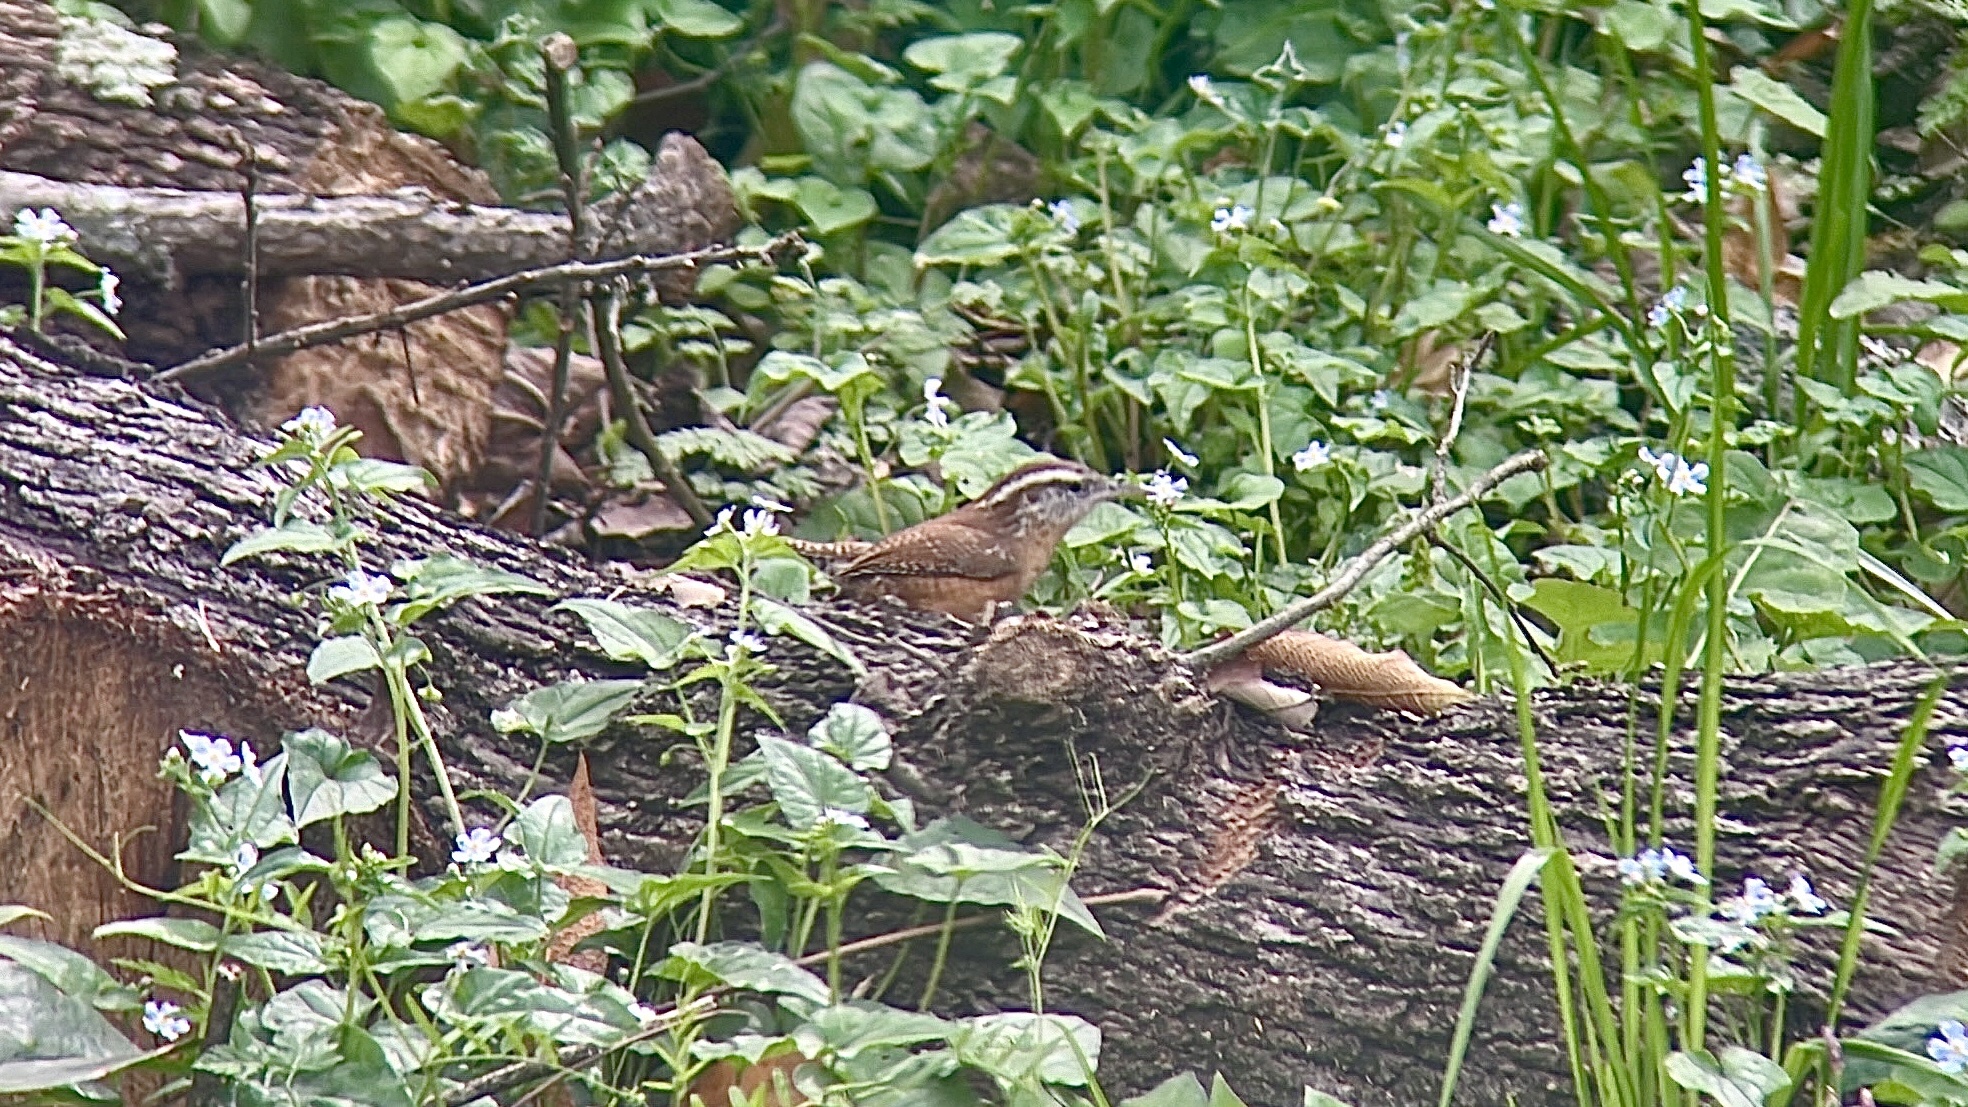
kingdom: Animalia
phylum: Chordata
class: Aves
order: Passeriformes
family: Troglodytidae
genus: Thryothorus
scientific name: Thryothorus ludovicianus
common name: Carolina wren
